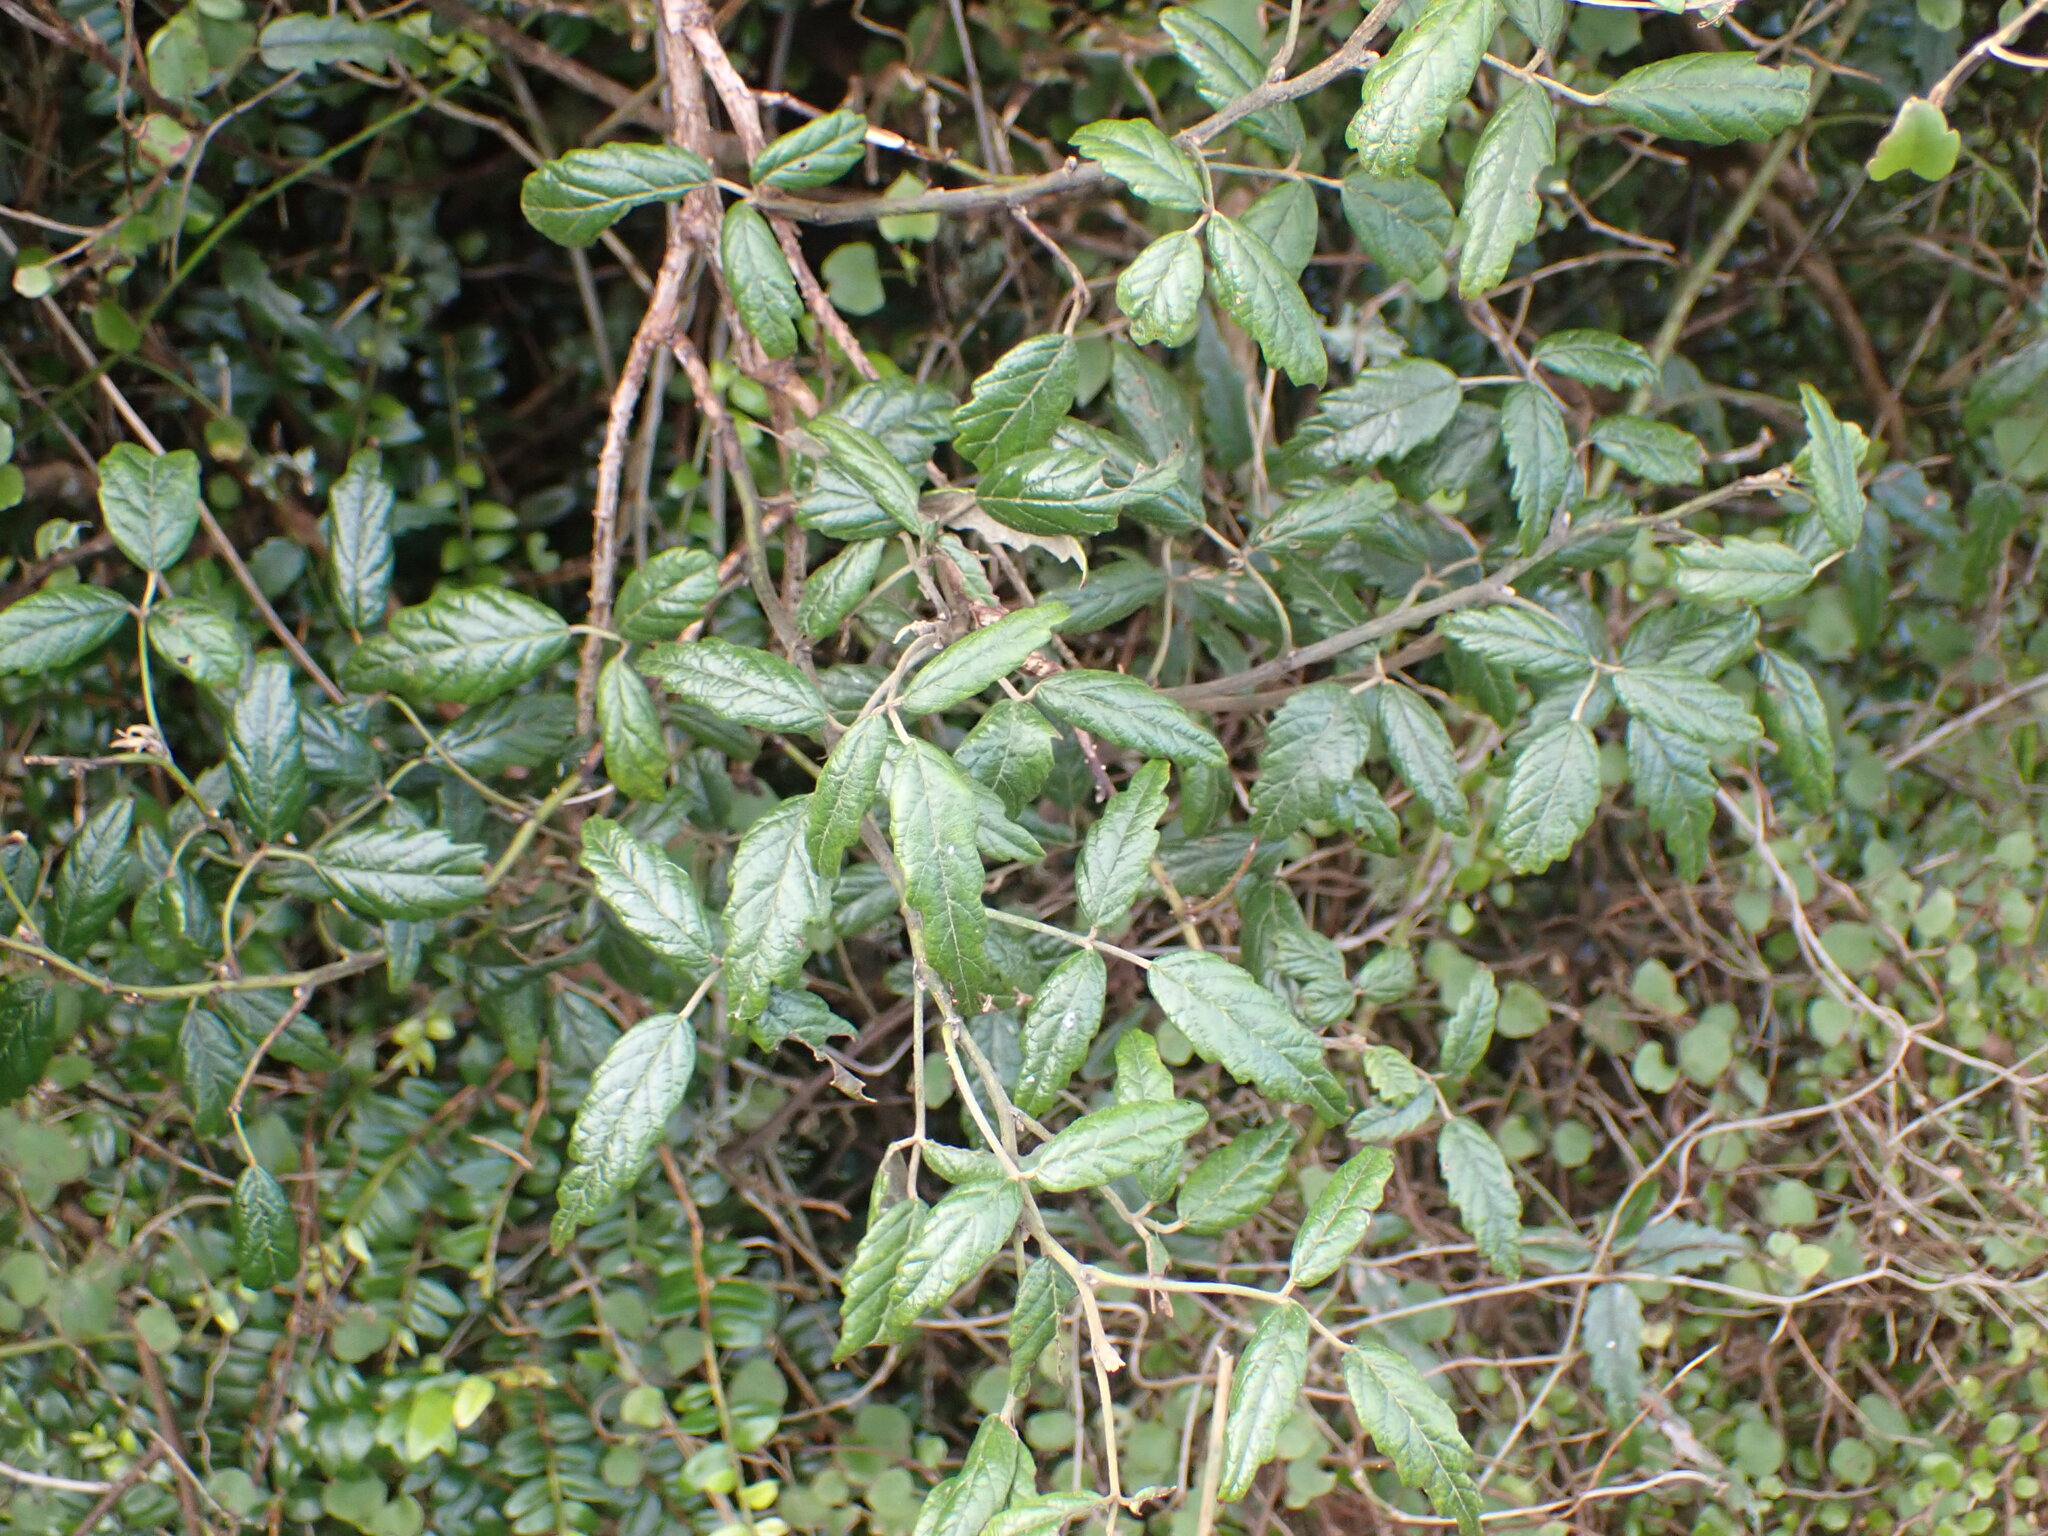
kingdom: Plantae
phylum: Tracheophyta
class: Magnoliopsida
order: Rosales
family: Rosaceae
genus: Rubus
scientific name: Rubus schmidelioides
